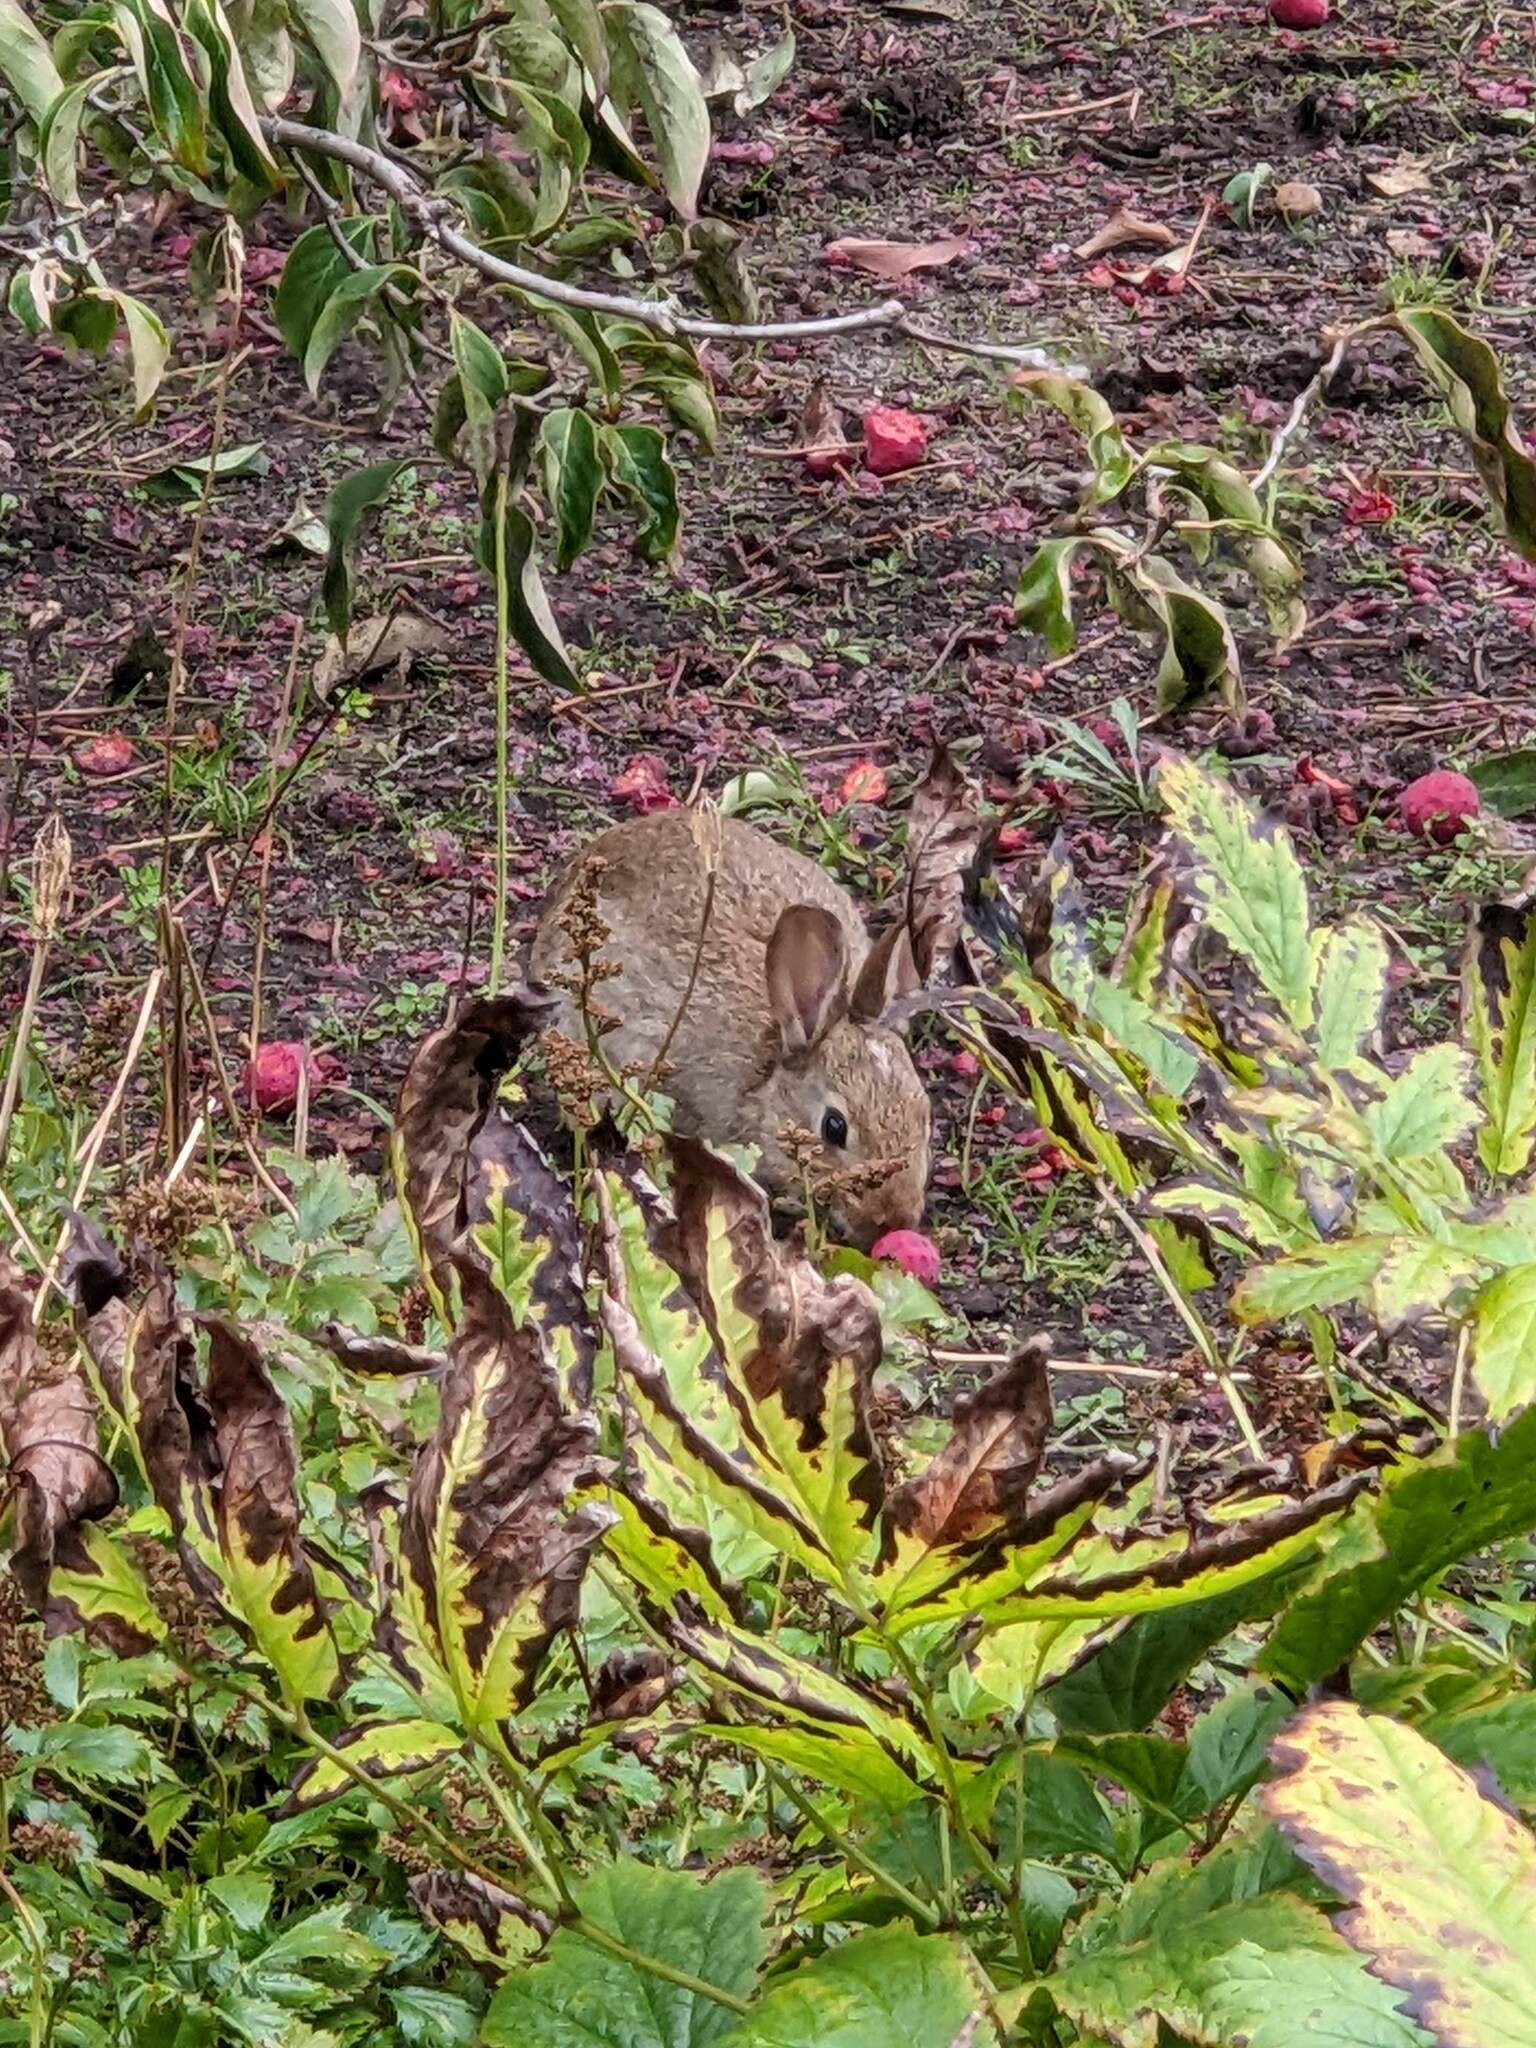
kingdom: Animalia
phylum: Chordata
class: Mammalia
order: Lagomorpha
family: Leporidae
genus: Oryctolagus
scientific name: Oryctolagus cuniculus
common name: European rabbit
